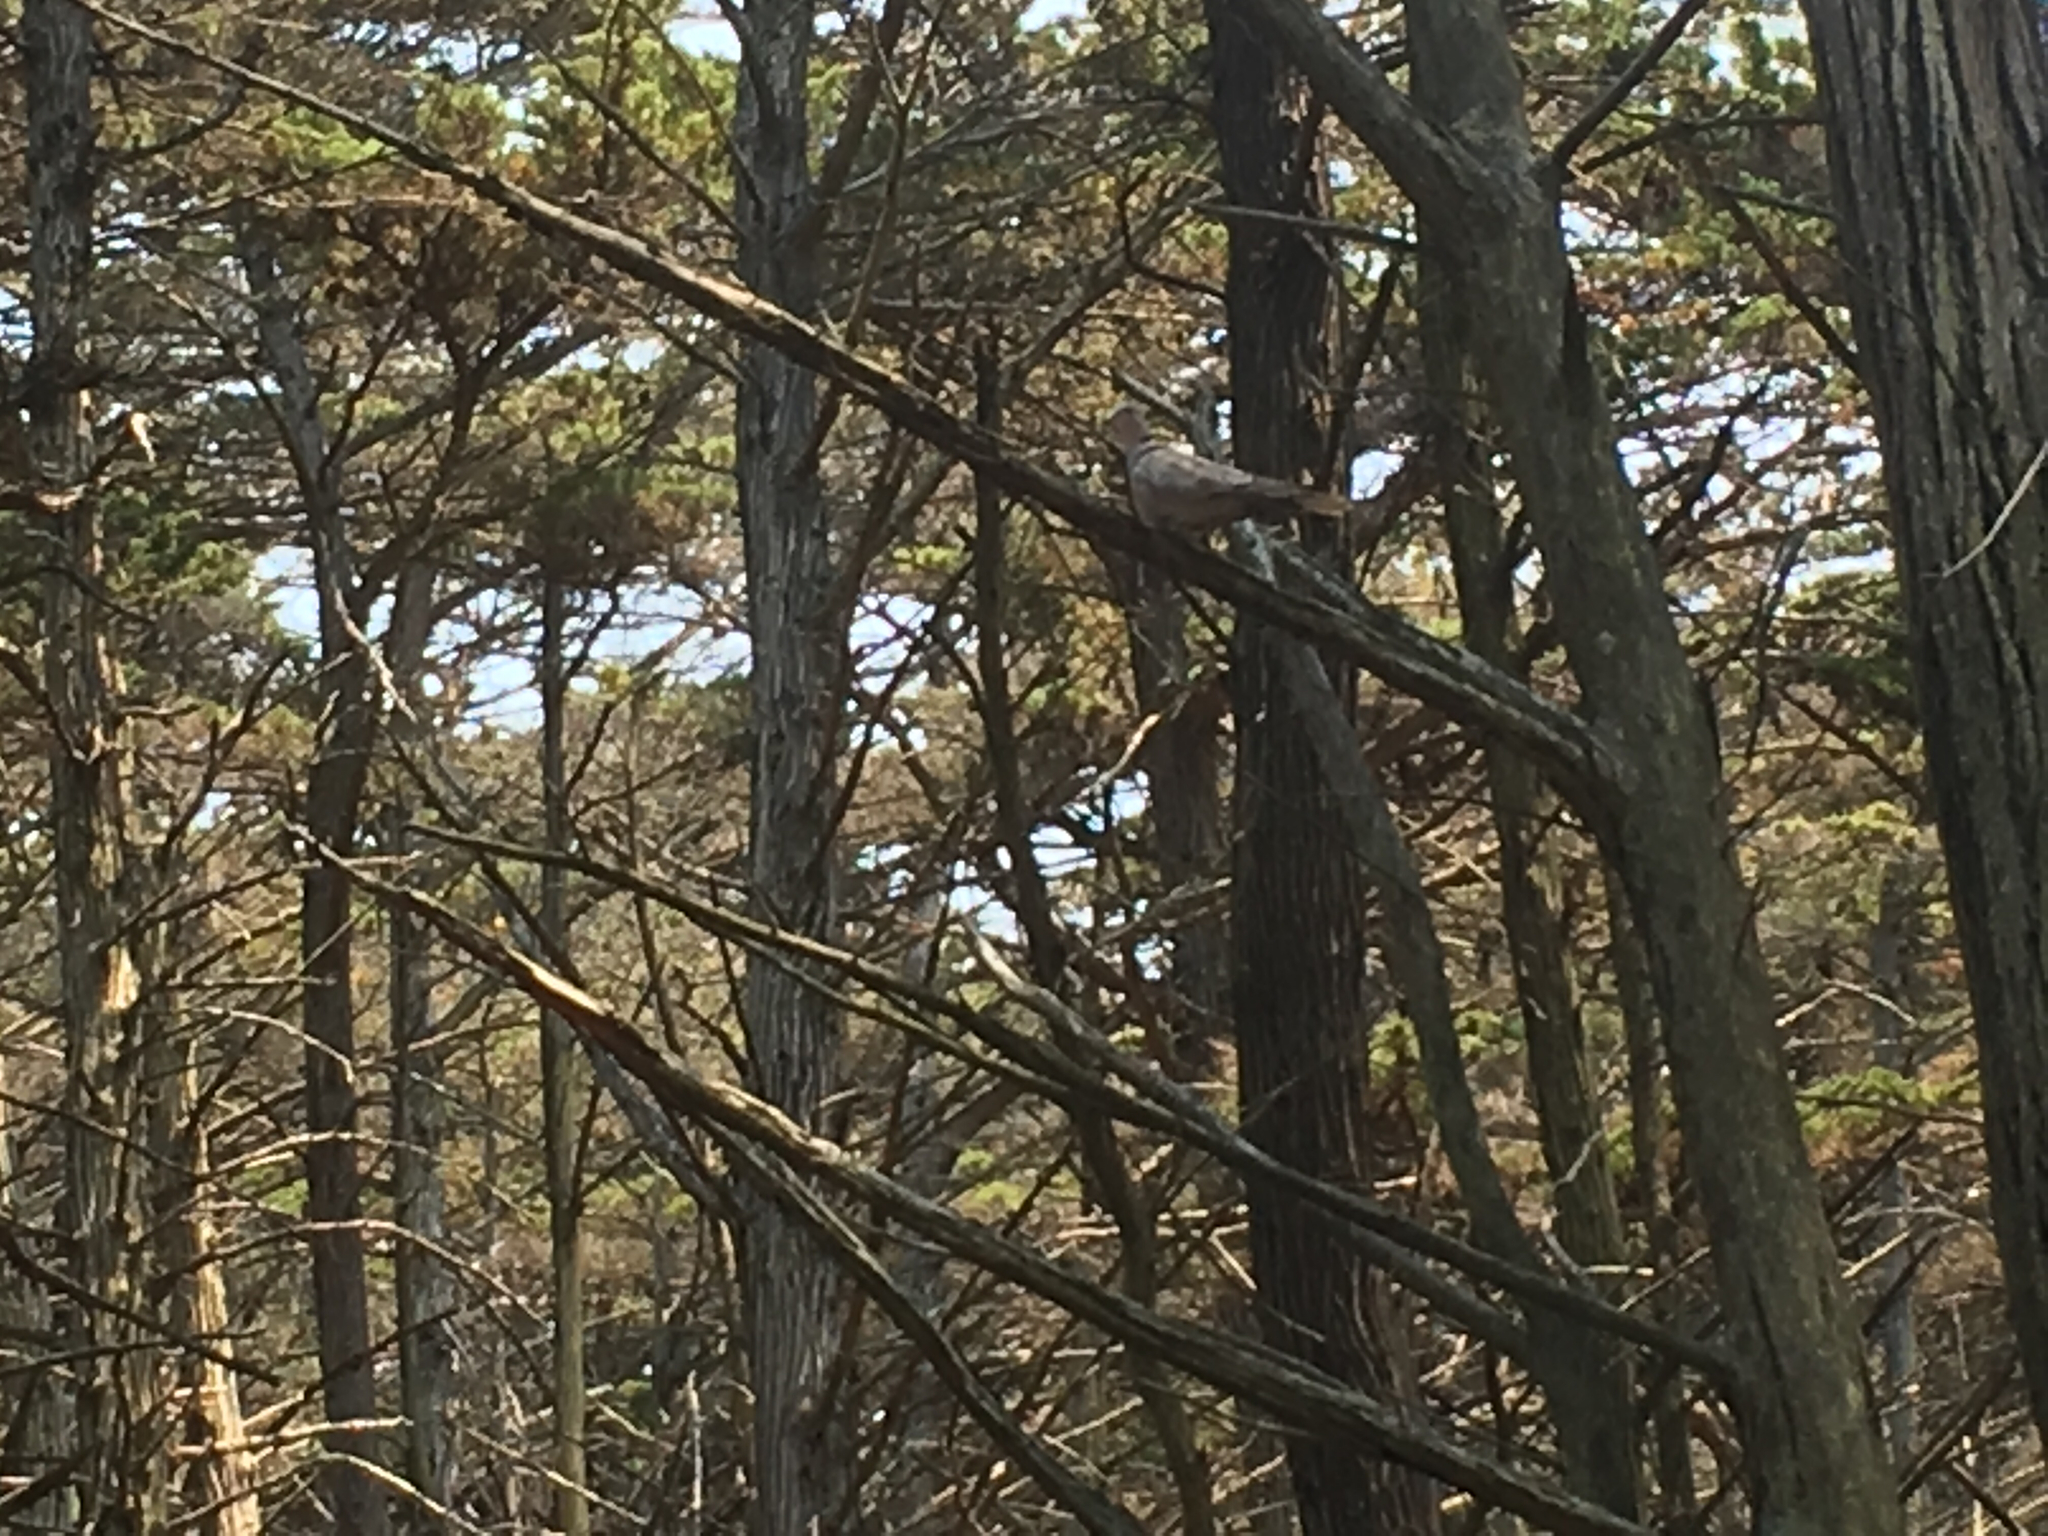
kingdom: Animalia
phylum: Chordata
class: Aves
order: Columbiformes
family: Columbidae
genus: Streptopelia
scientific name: Streptopelia decaocto
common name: Eurasian collared dove
